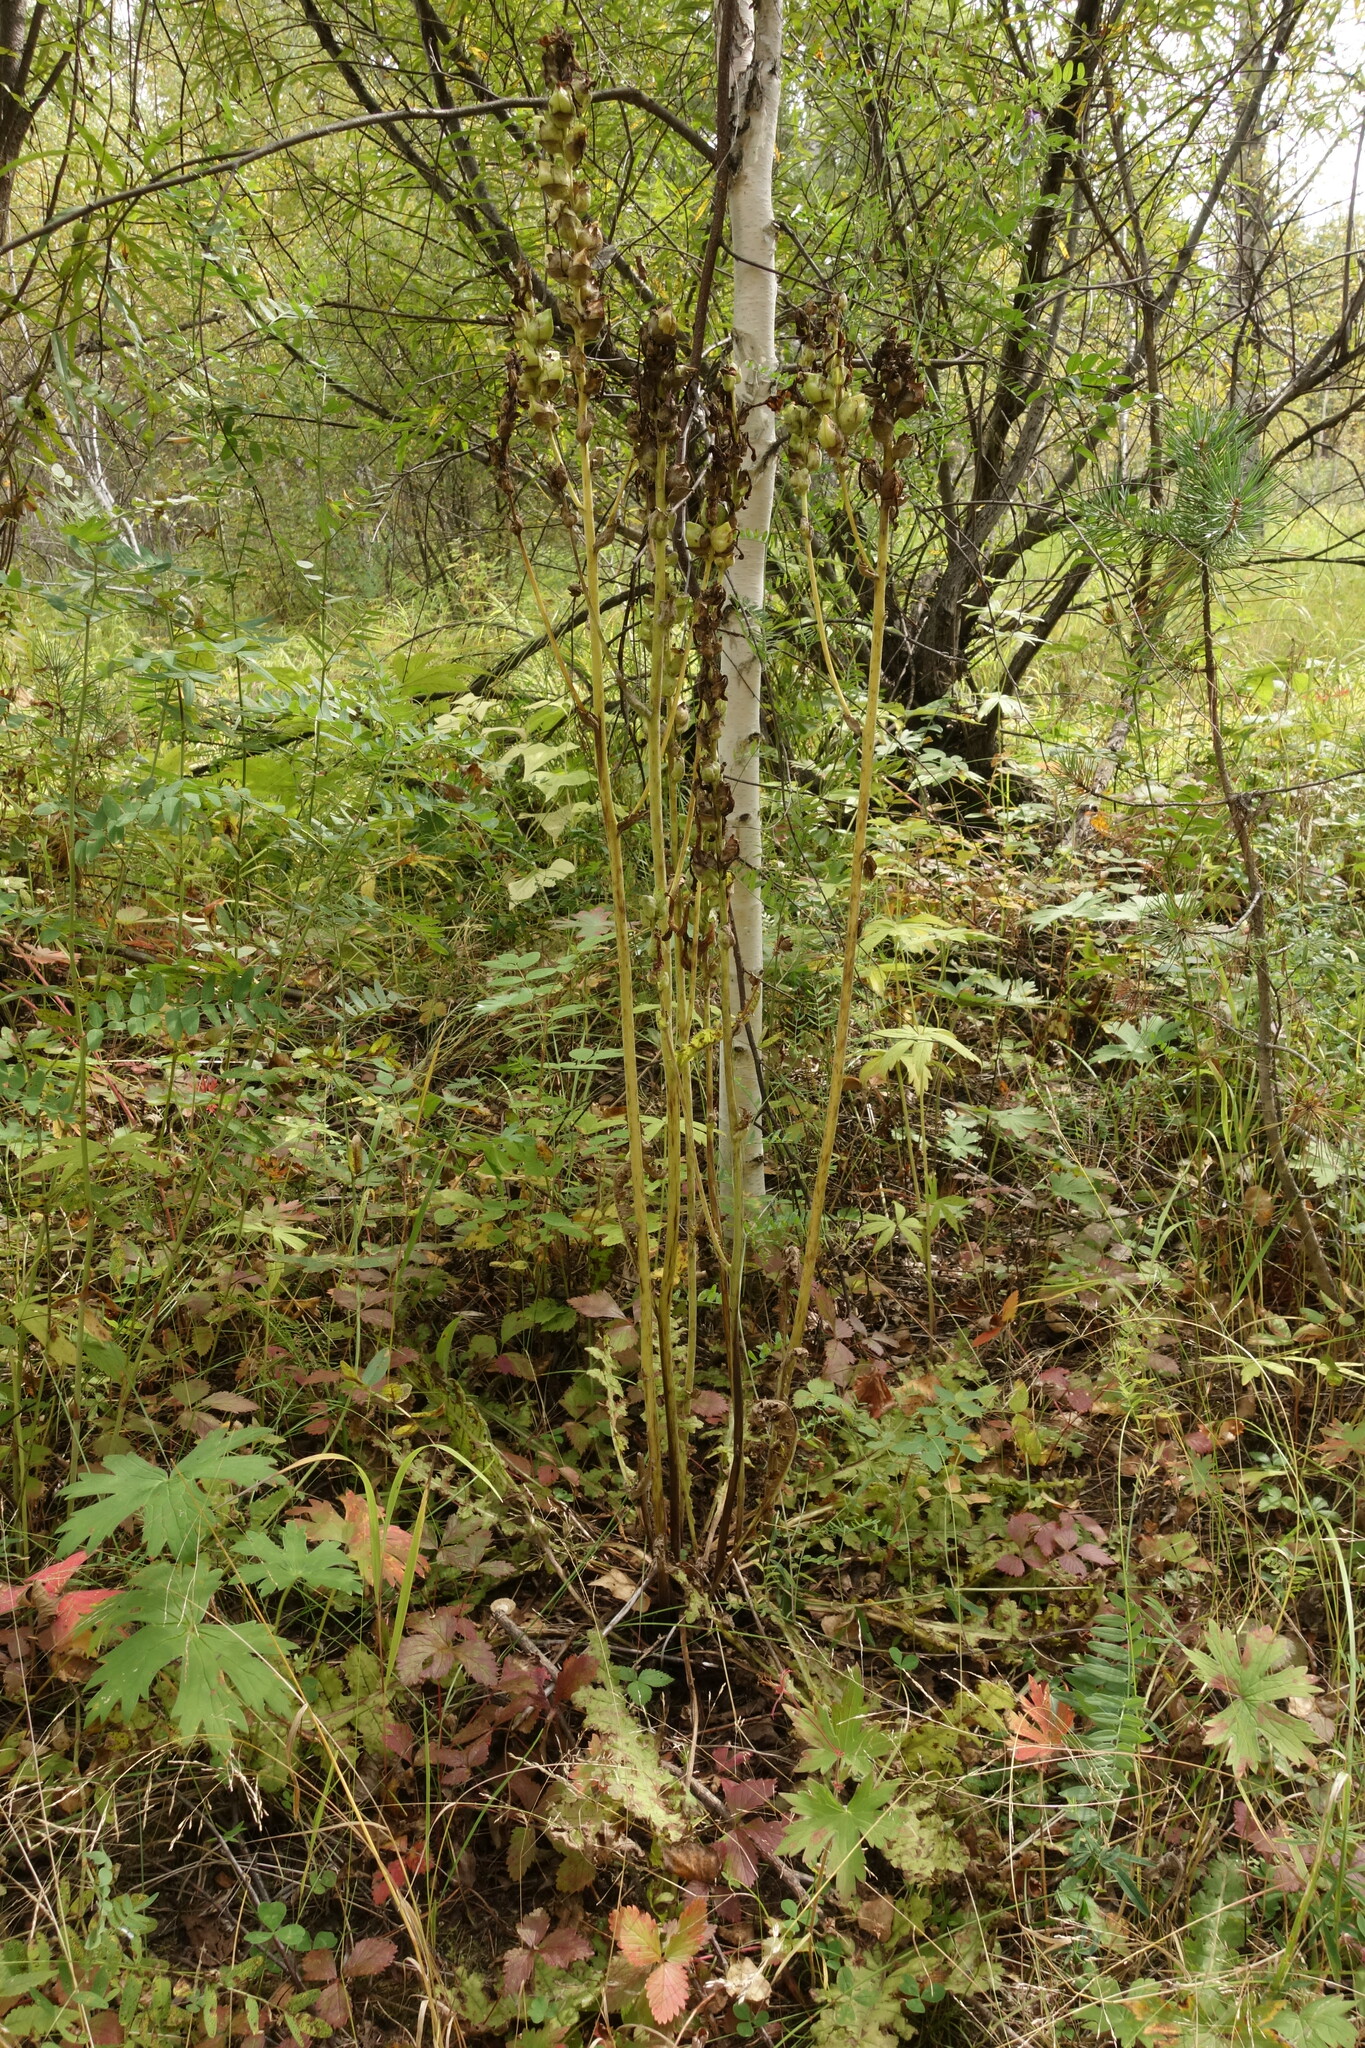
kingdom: Plantae
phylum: Tracheophyta
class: Magnoliopsida
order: Lamiales
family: Orobanchaceae
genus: Pedicularis
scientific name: Pedicularis sceptrum-carolinum
